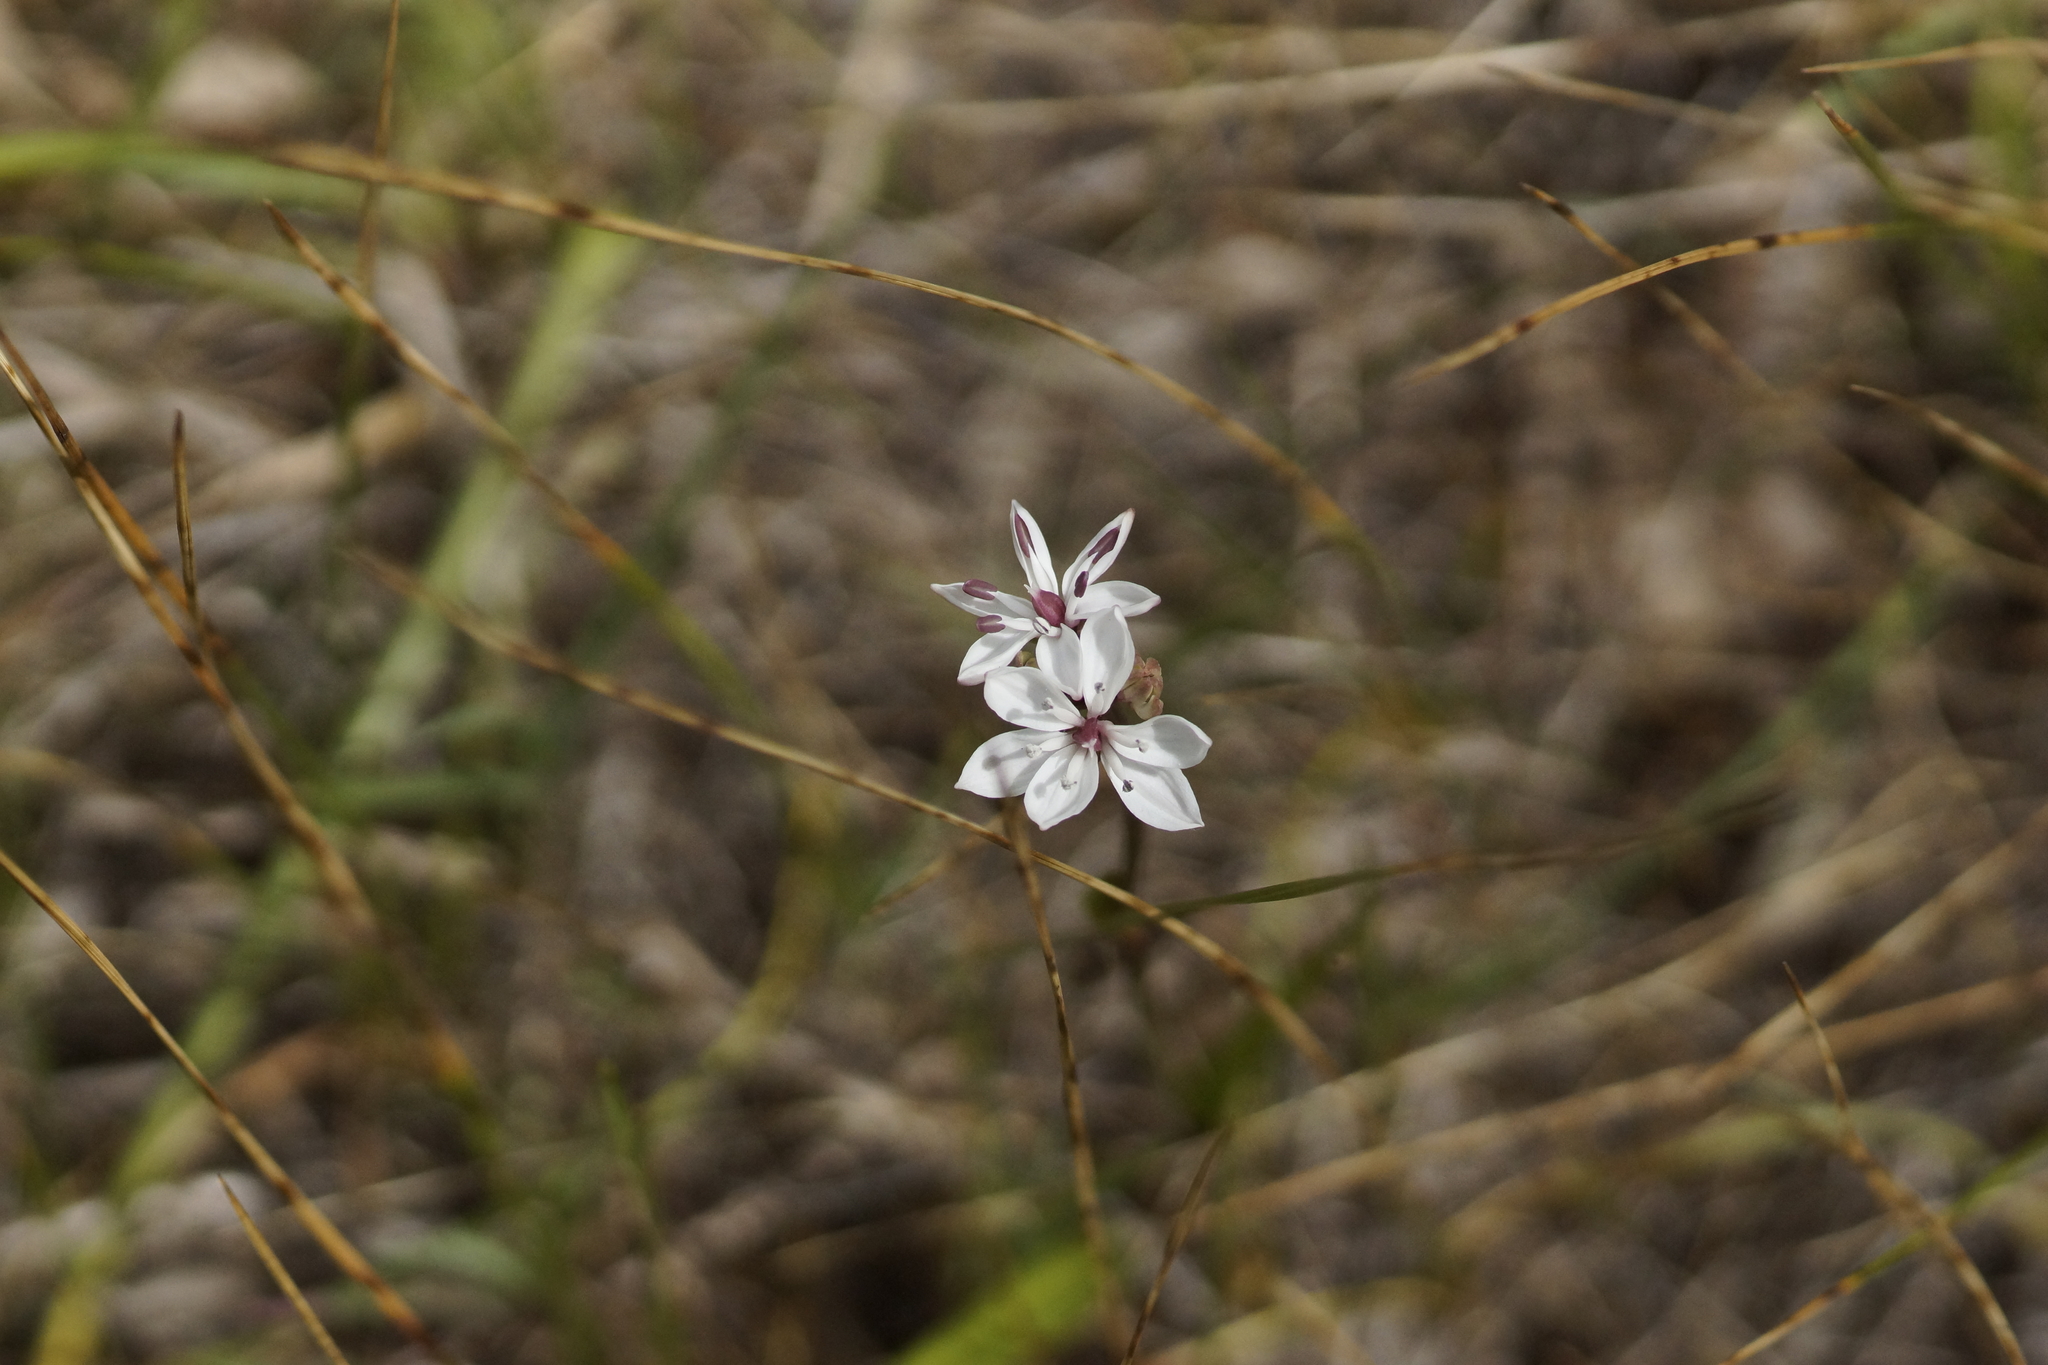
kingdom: Plantae
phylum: Tracheophyta
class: Liliopsida
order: Liliales
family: Colchicaceae
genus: Burchardia
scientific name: Burchardia umbellata
